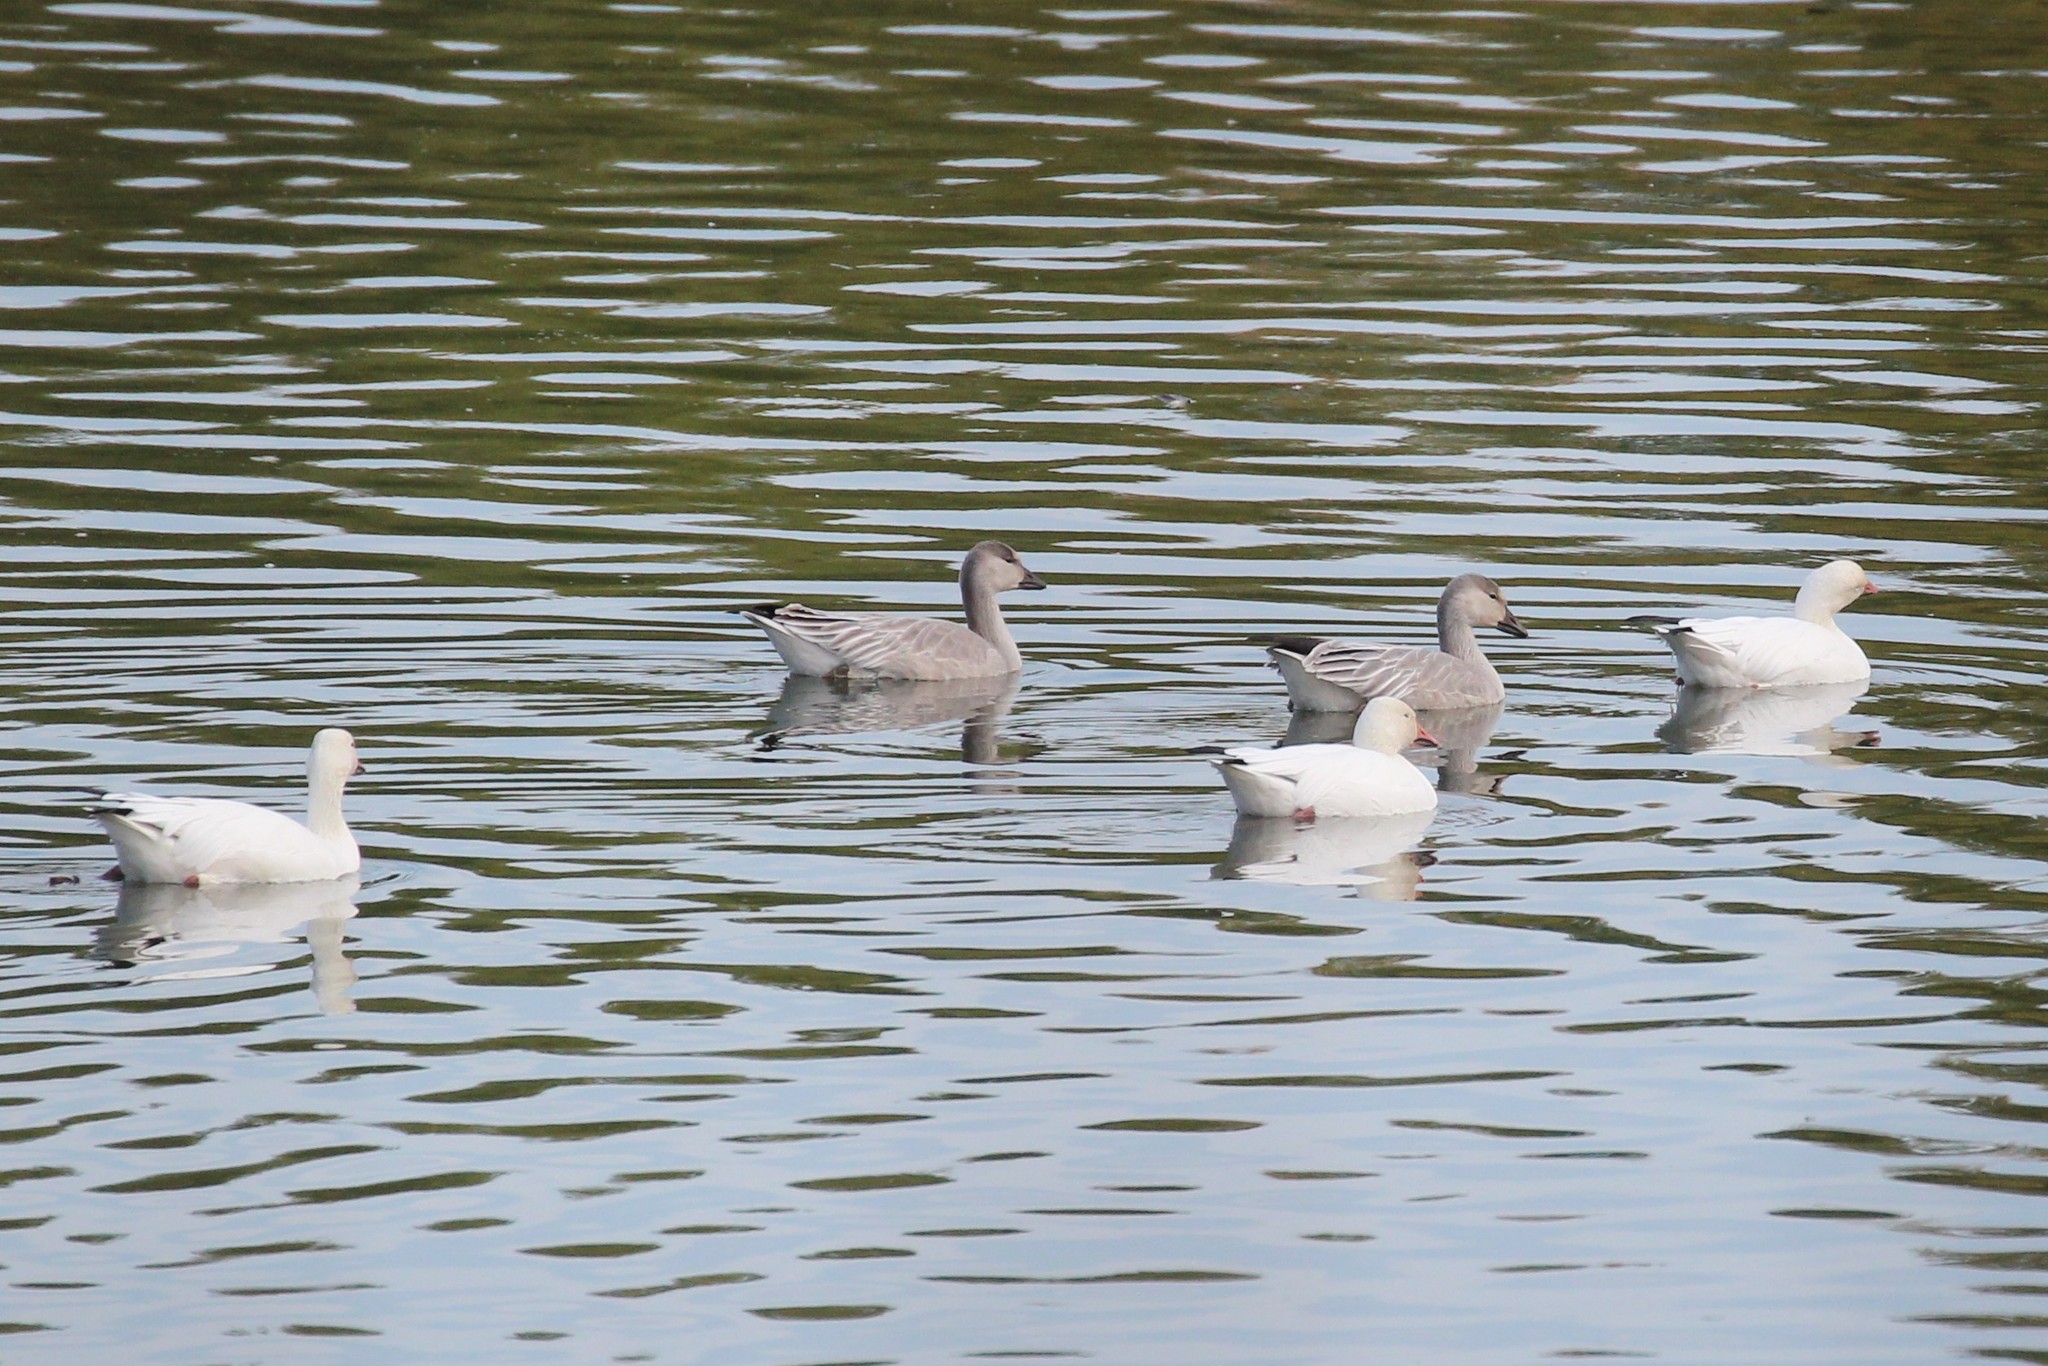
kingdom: Animalia
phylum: Chordata
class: Aves
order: Anseriformes
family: Anatidae
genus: Anser
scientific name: Anser caerulescens
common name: Snow goose
